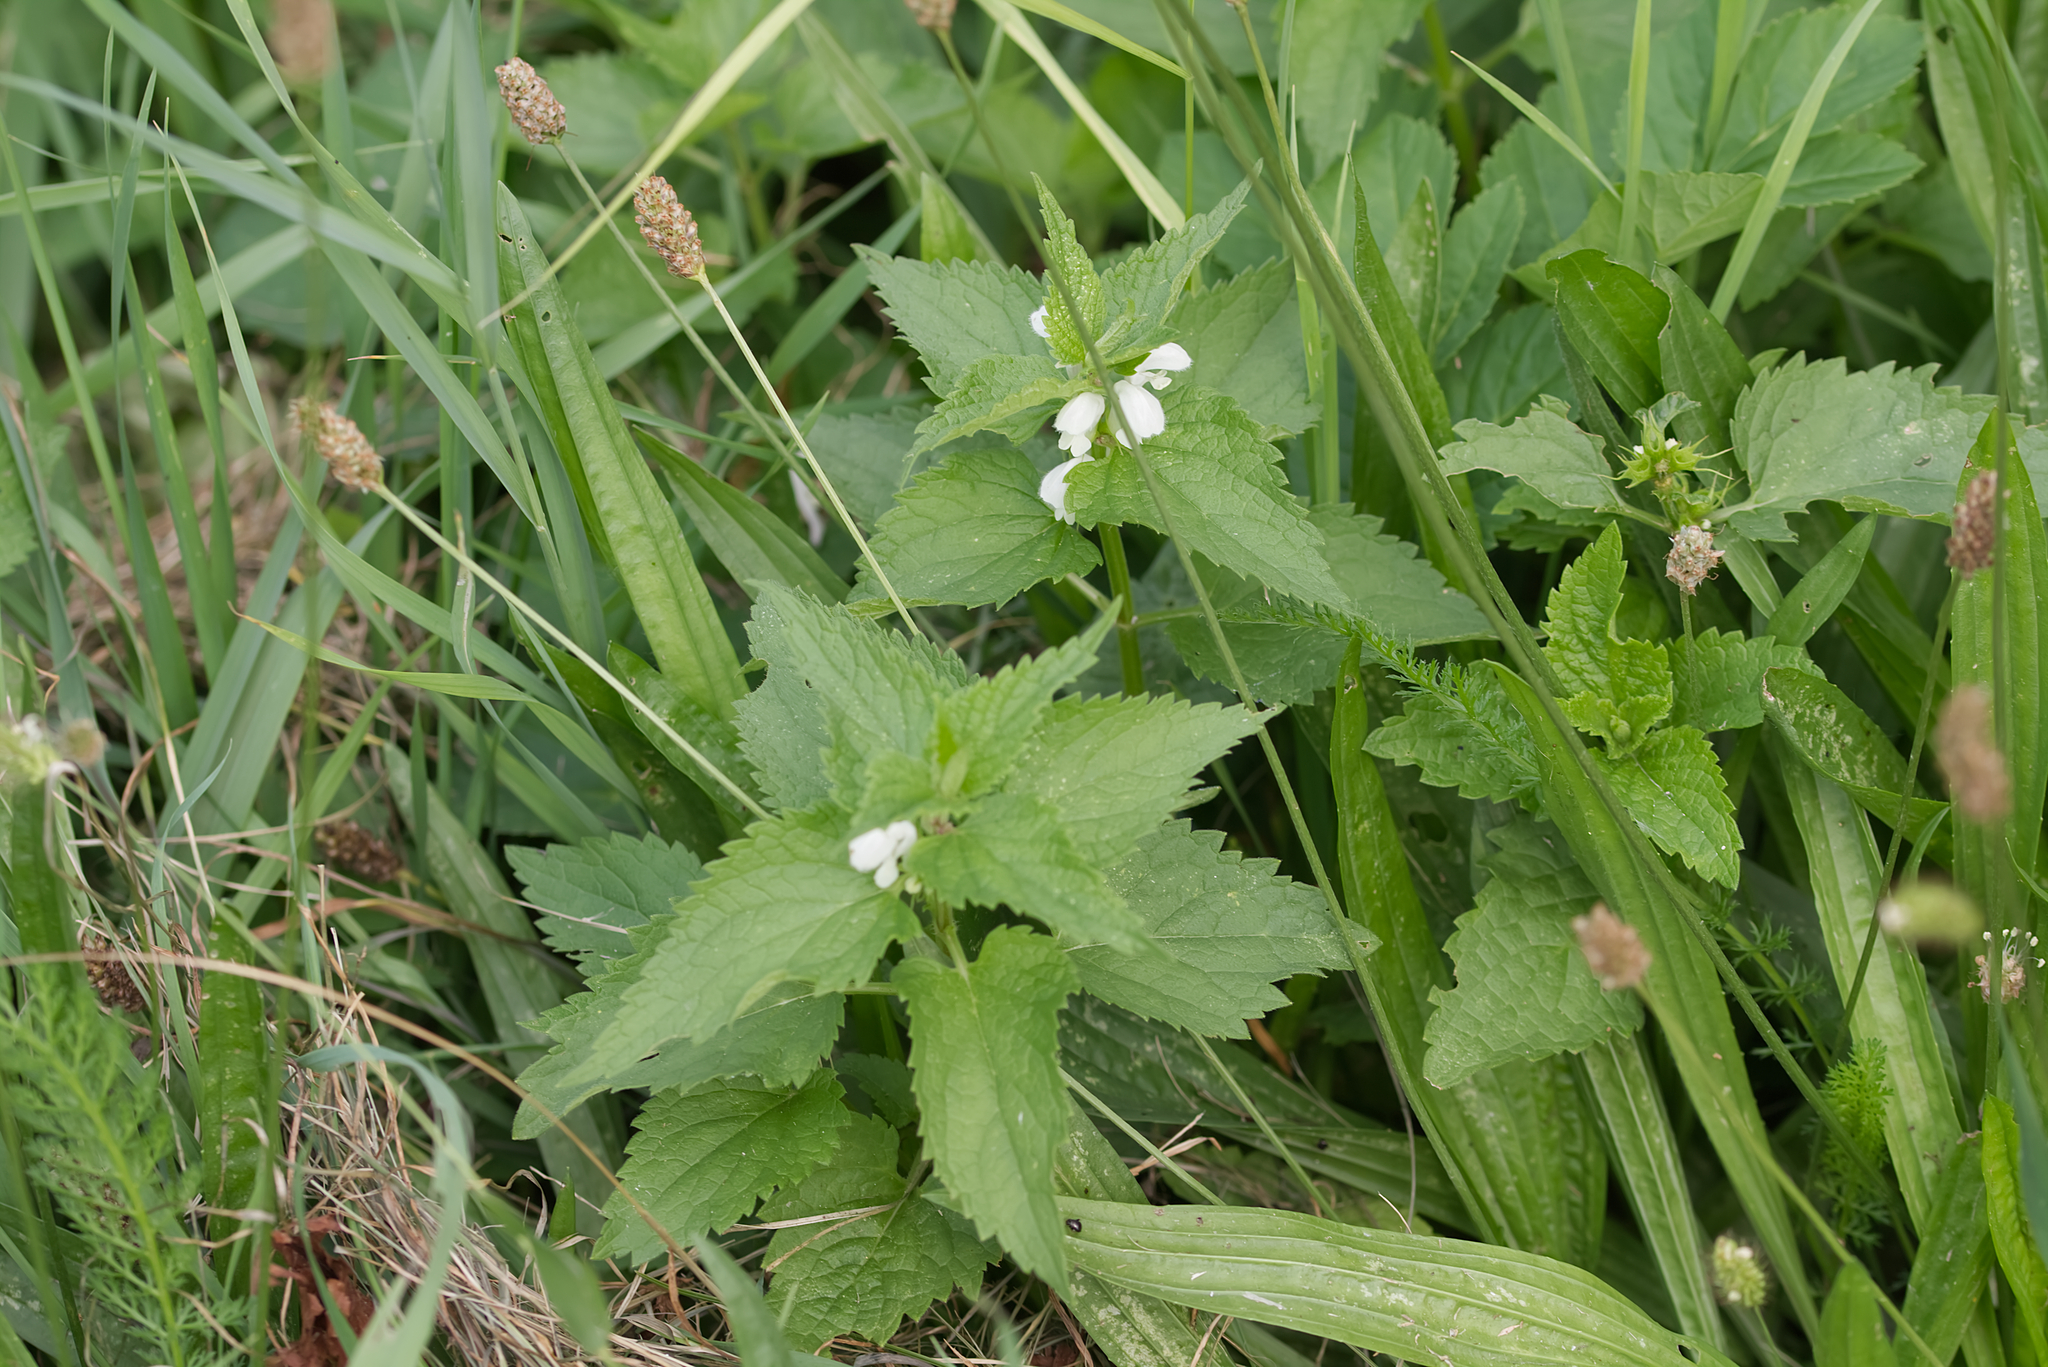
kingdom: Plantae
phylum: Tracheophyta
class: Magnoliopsida
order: Lamiales
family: Lamiaceae
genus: Lamium
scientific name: Lamium album
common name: White dead-nettle
